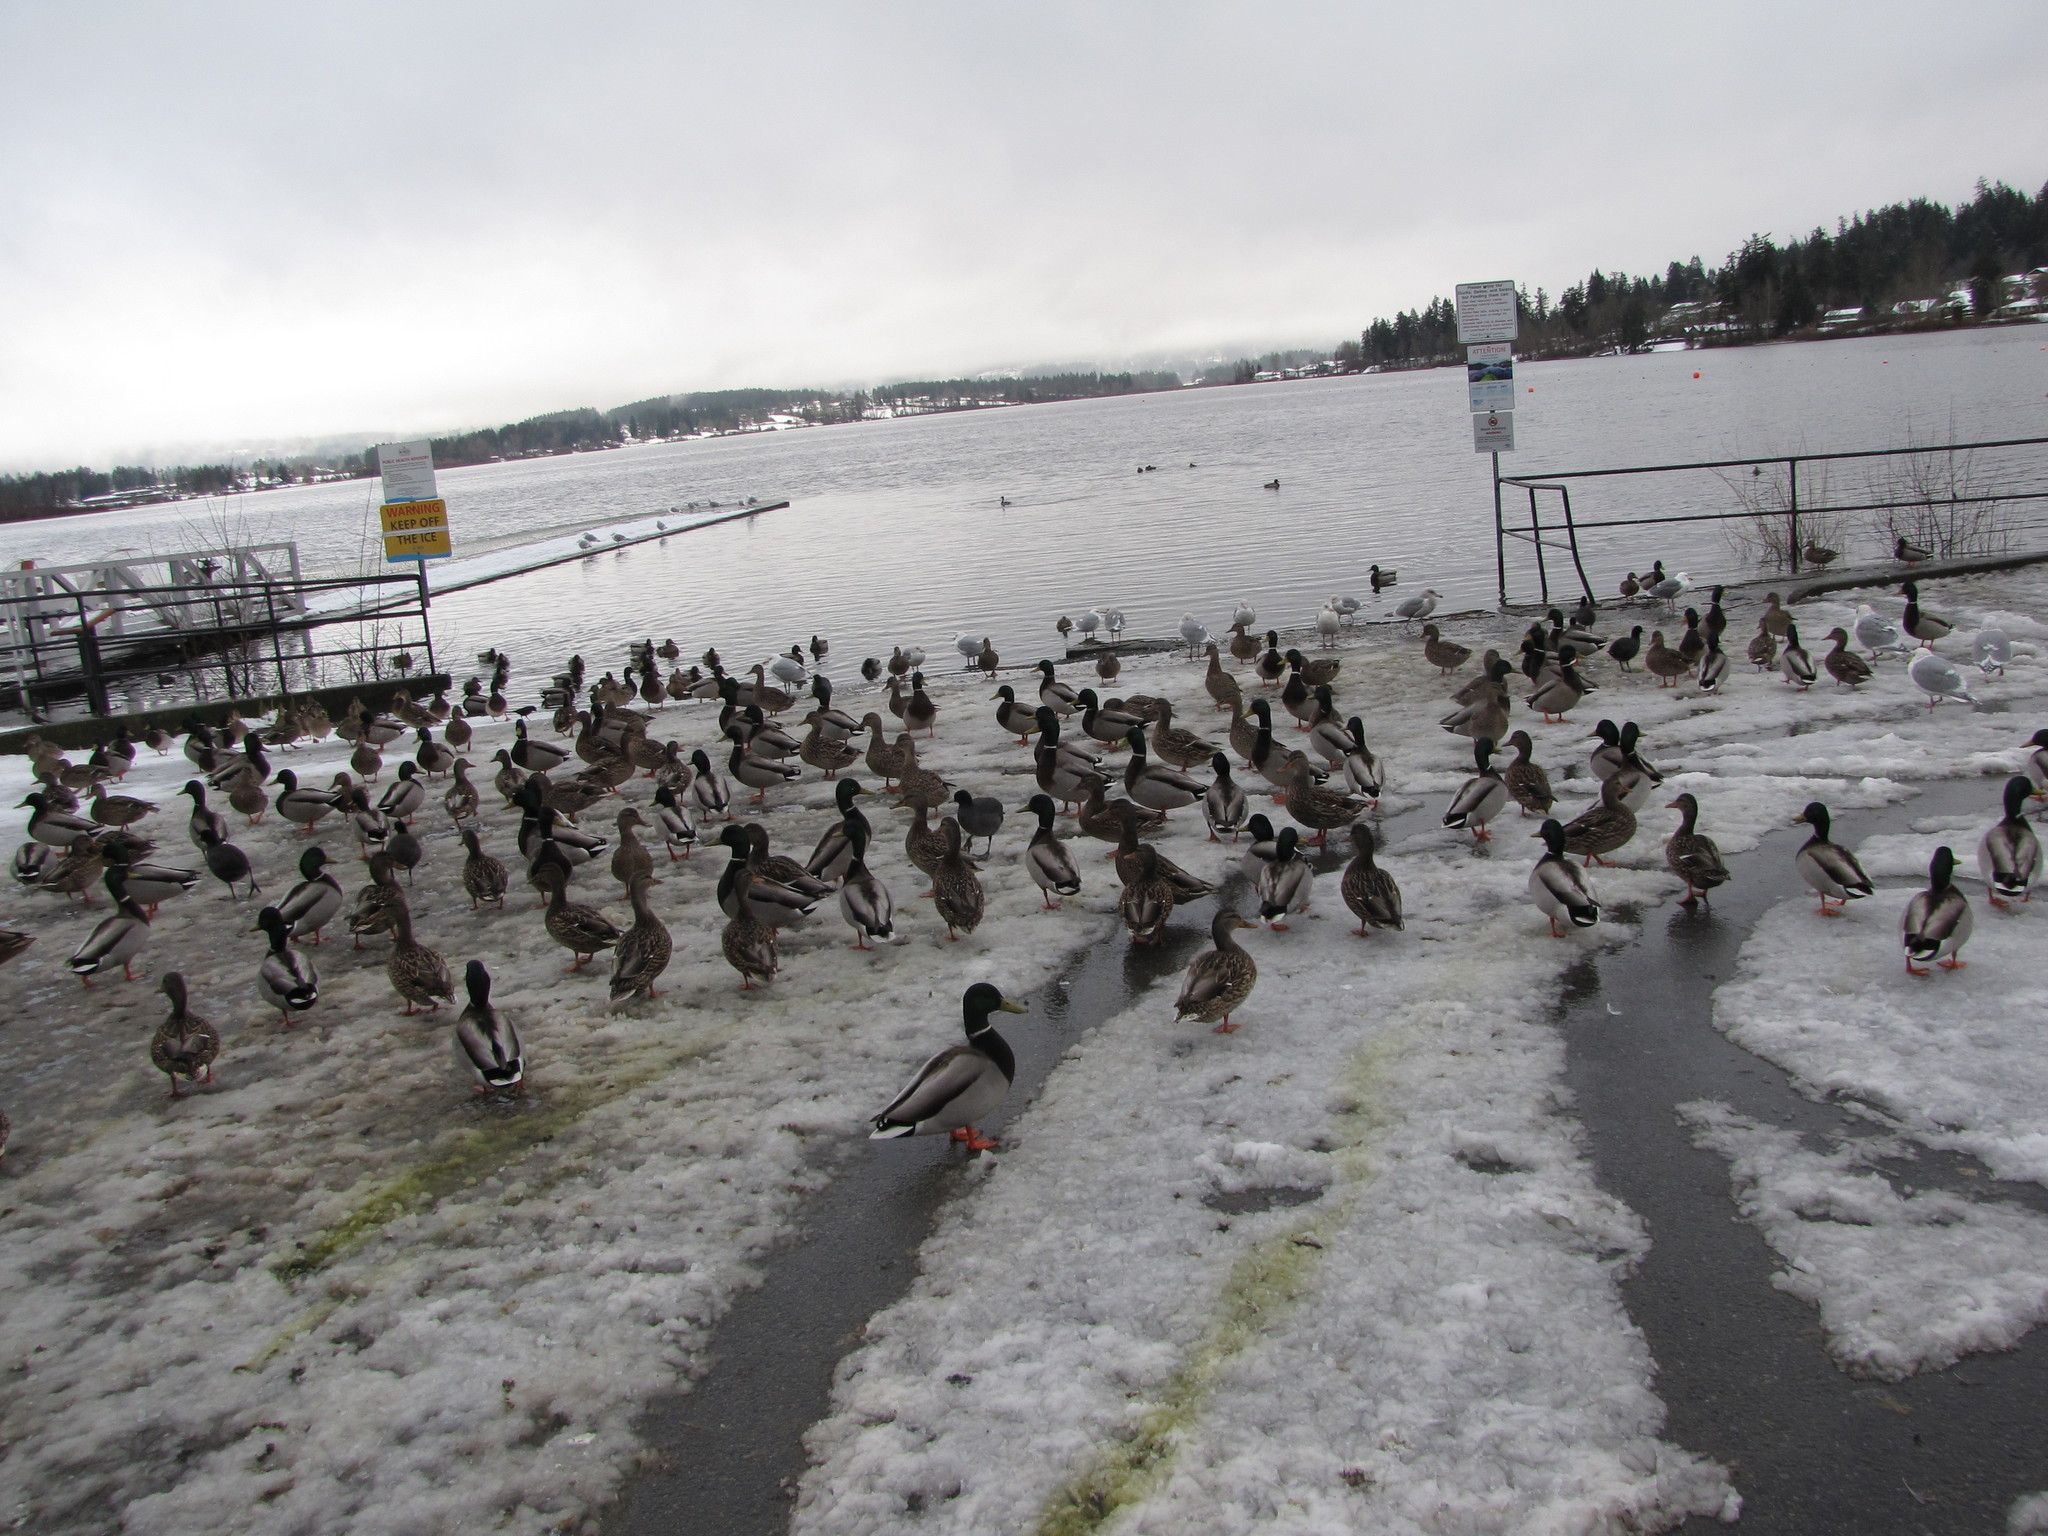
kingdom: Animalia
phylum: Chordata
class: Aves
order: Anseriformes
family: Anatidae
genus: Anas
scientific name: Anas platyrhynchos
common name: Mallard
